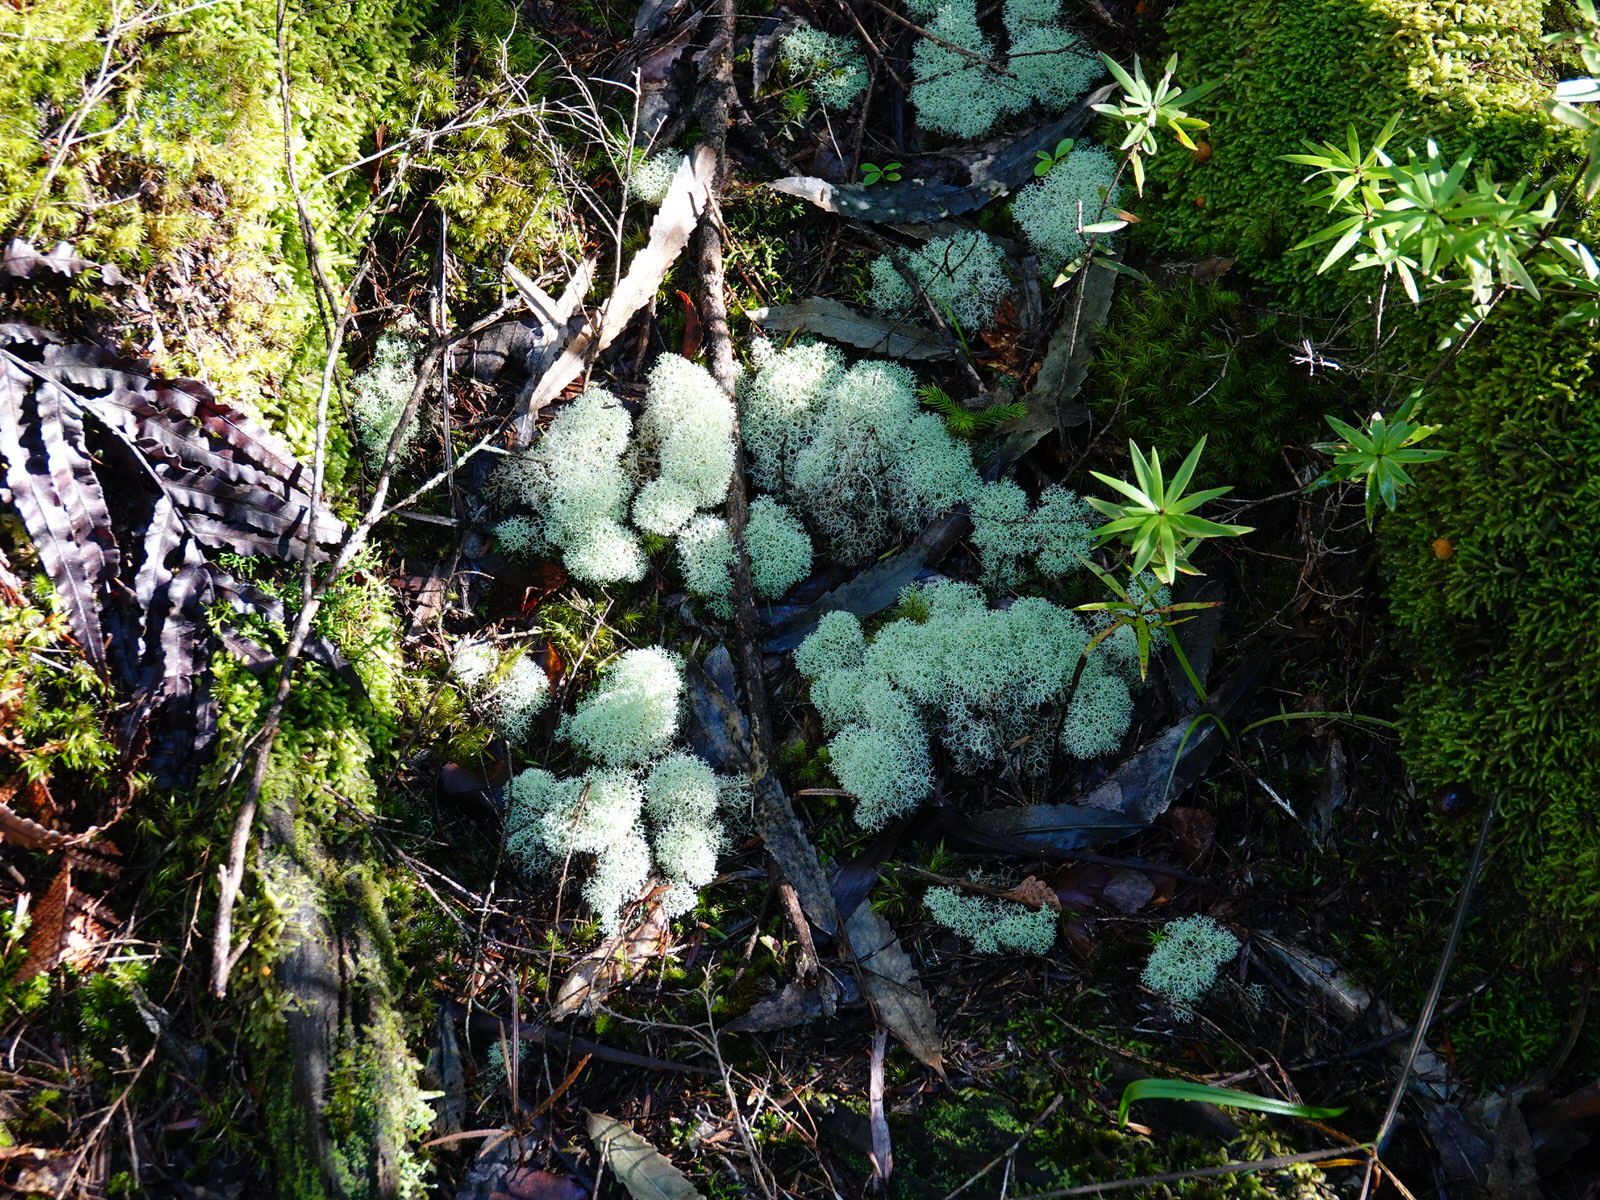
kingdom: Fungi
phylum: Ascomycota
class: Lecanoromycetes
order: Lecanorales
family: Cladoniaceae
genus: Cladonia
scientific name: Cladonia confusa
